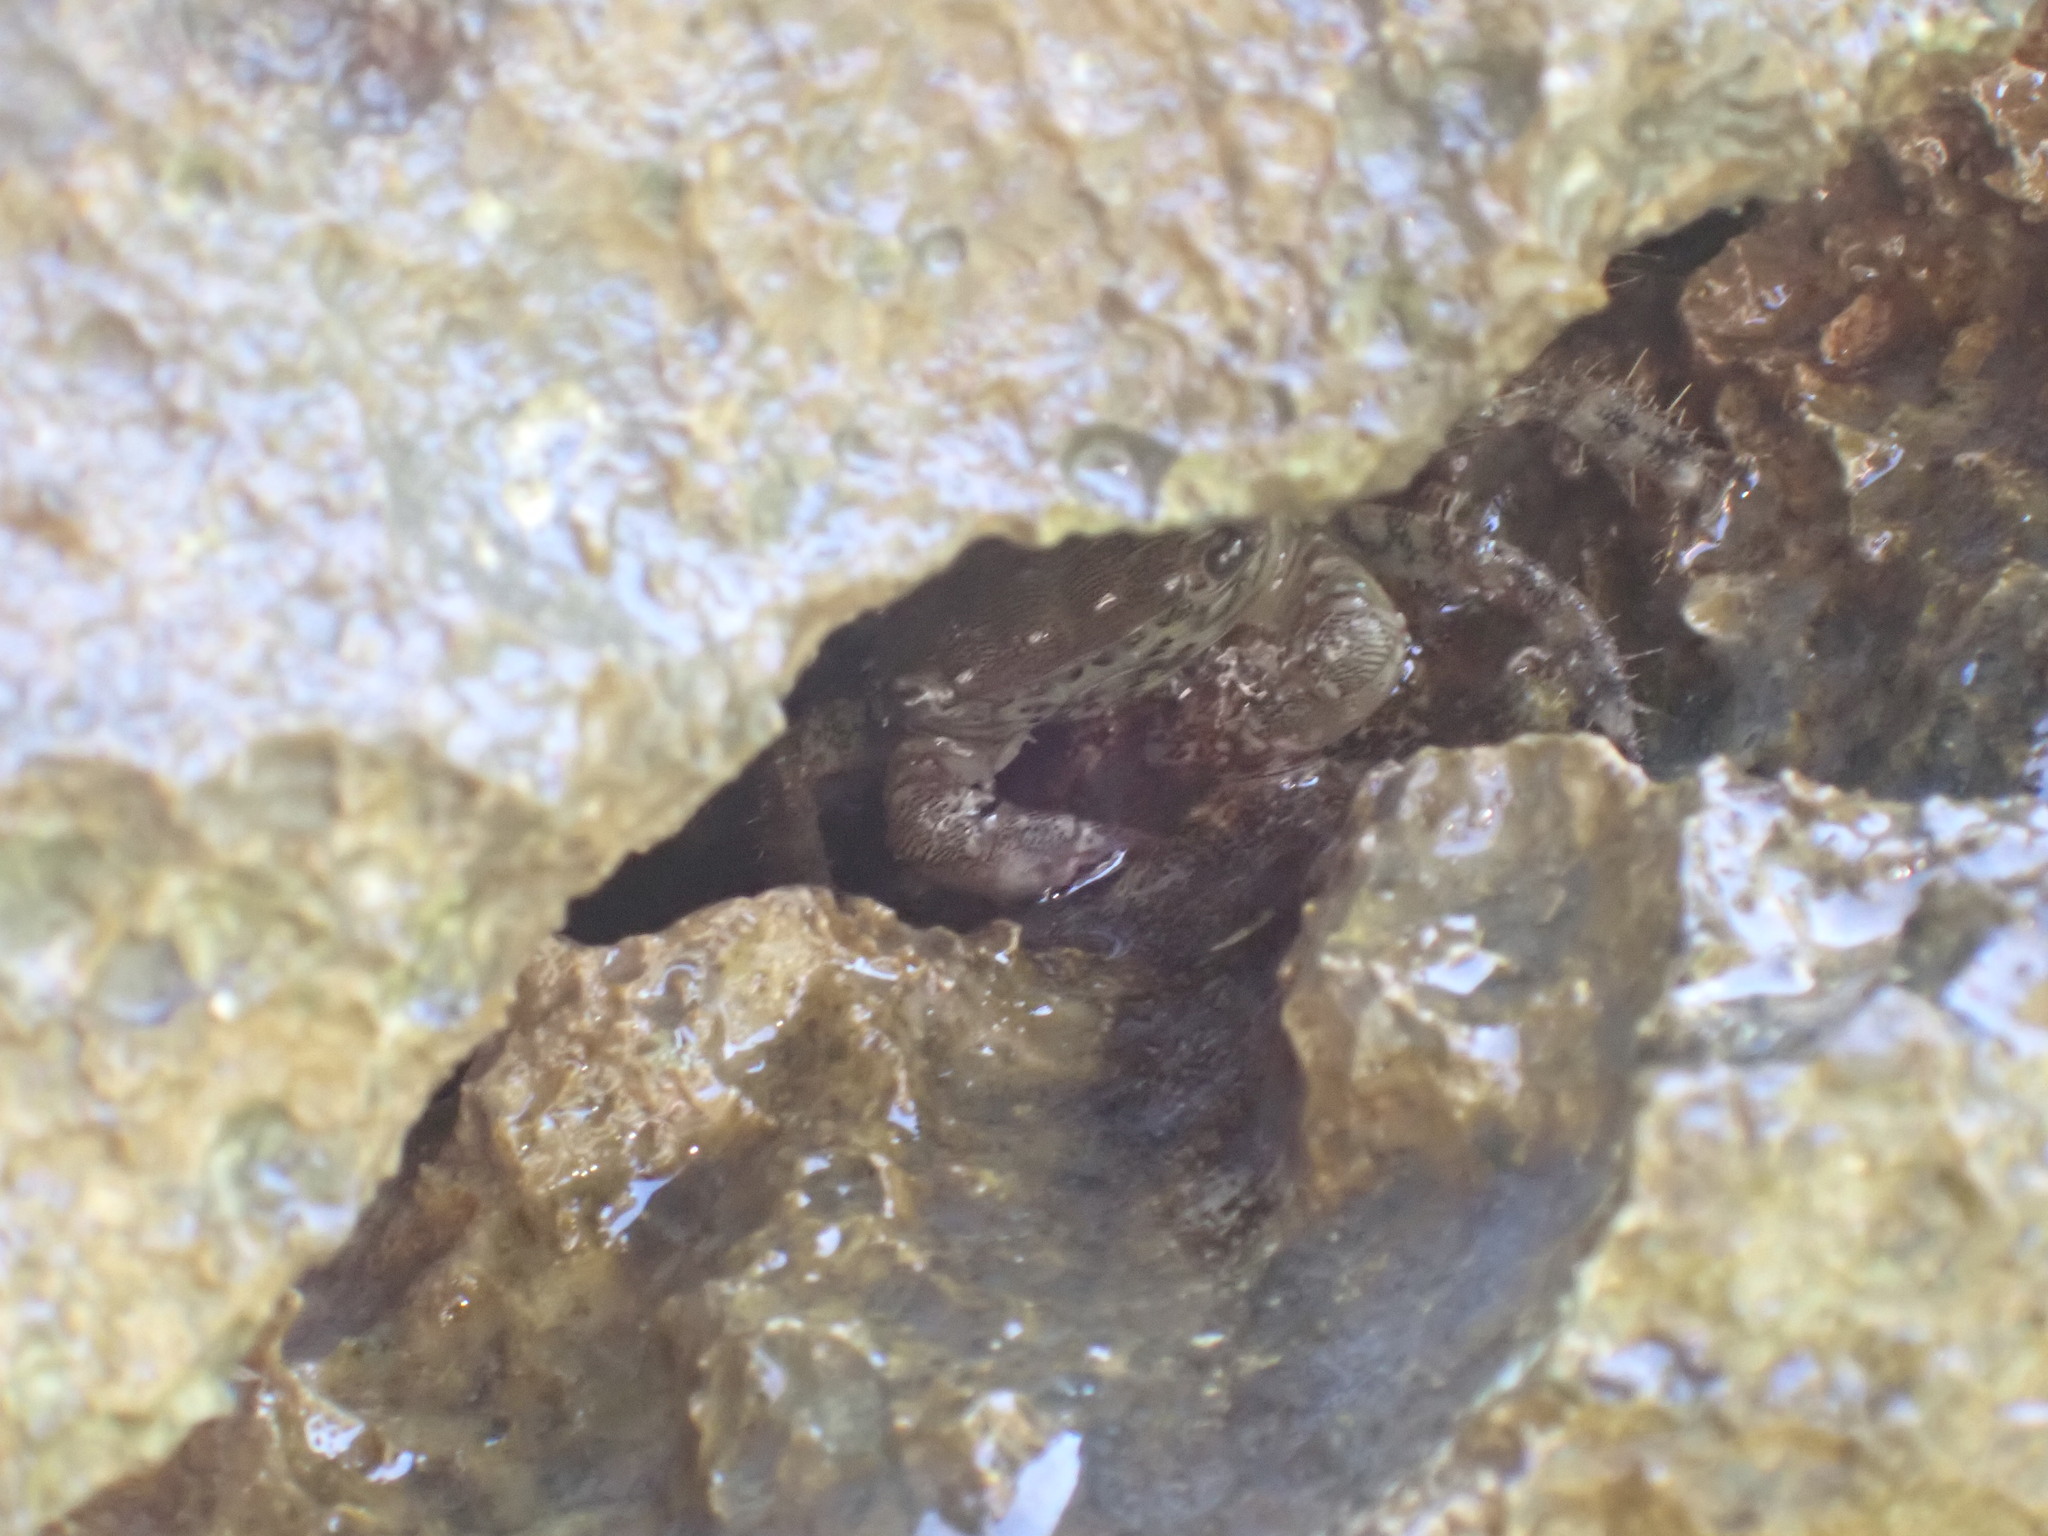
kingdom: Animalia
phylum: Arthropoda
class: Malacostraca
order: Decapoda
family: Grapsidae
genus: Pachygrapsus
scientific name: Pachygrapsus marmoratus
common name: Marbled rock crab
